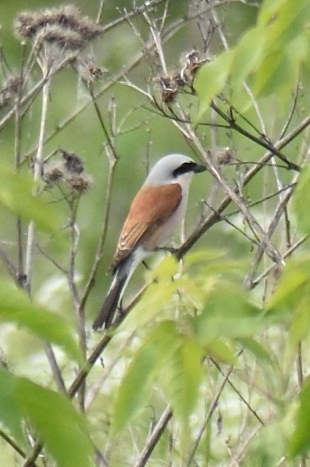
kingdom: Animalia
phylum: Chordata
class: Aves
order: Passeriformes
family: Laniidae
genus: Lanius
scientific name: Lanius collurio
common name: Red-backed shrike
